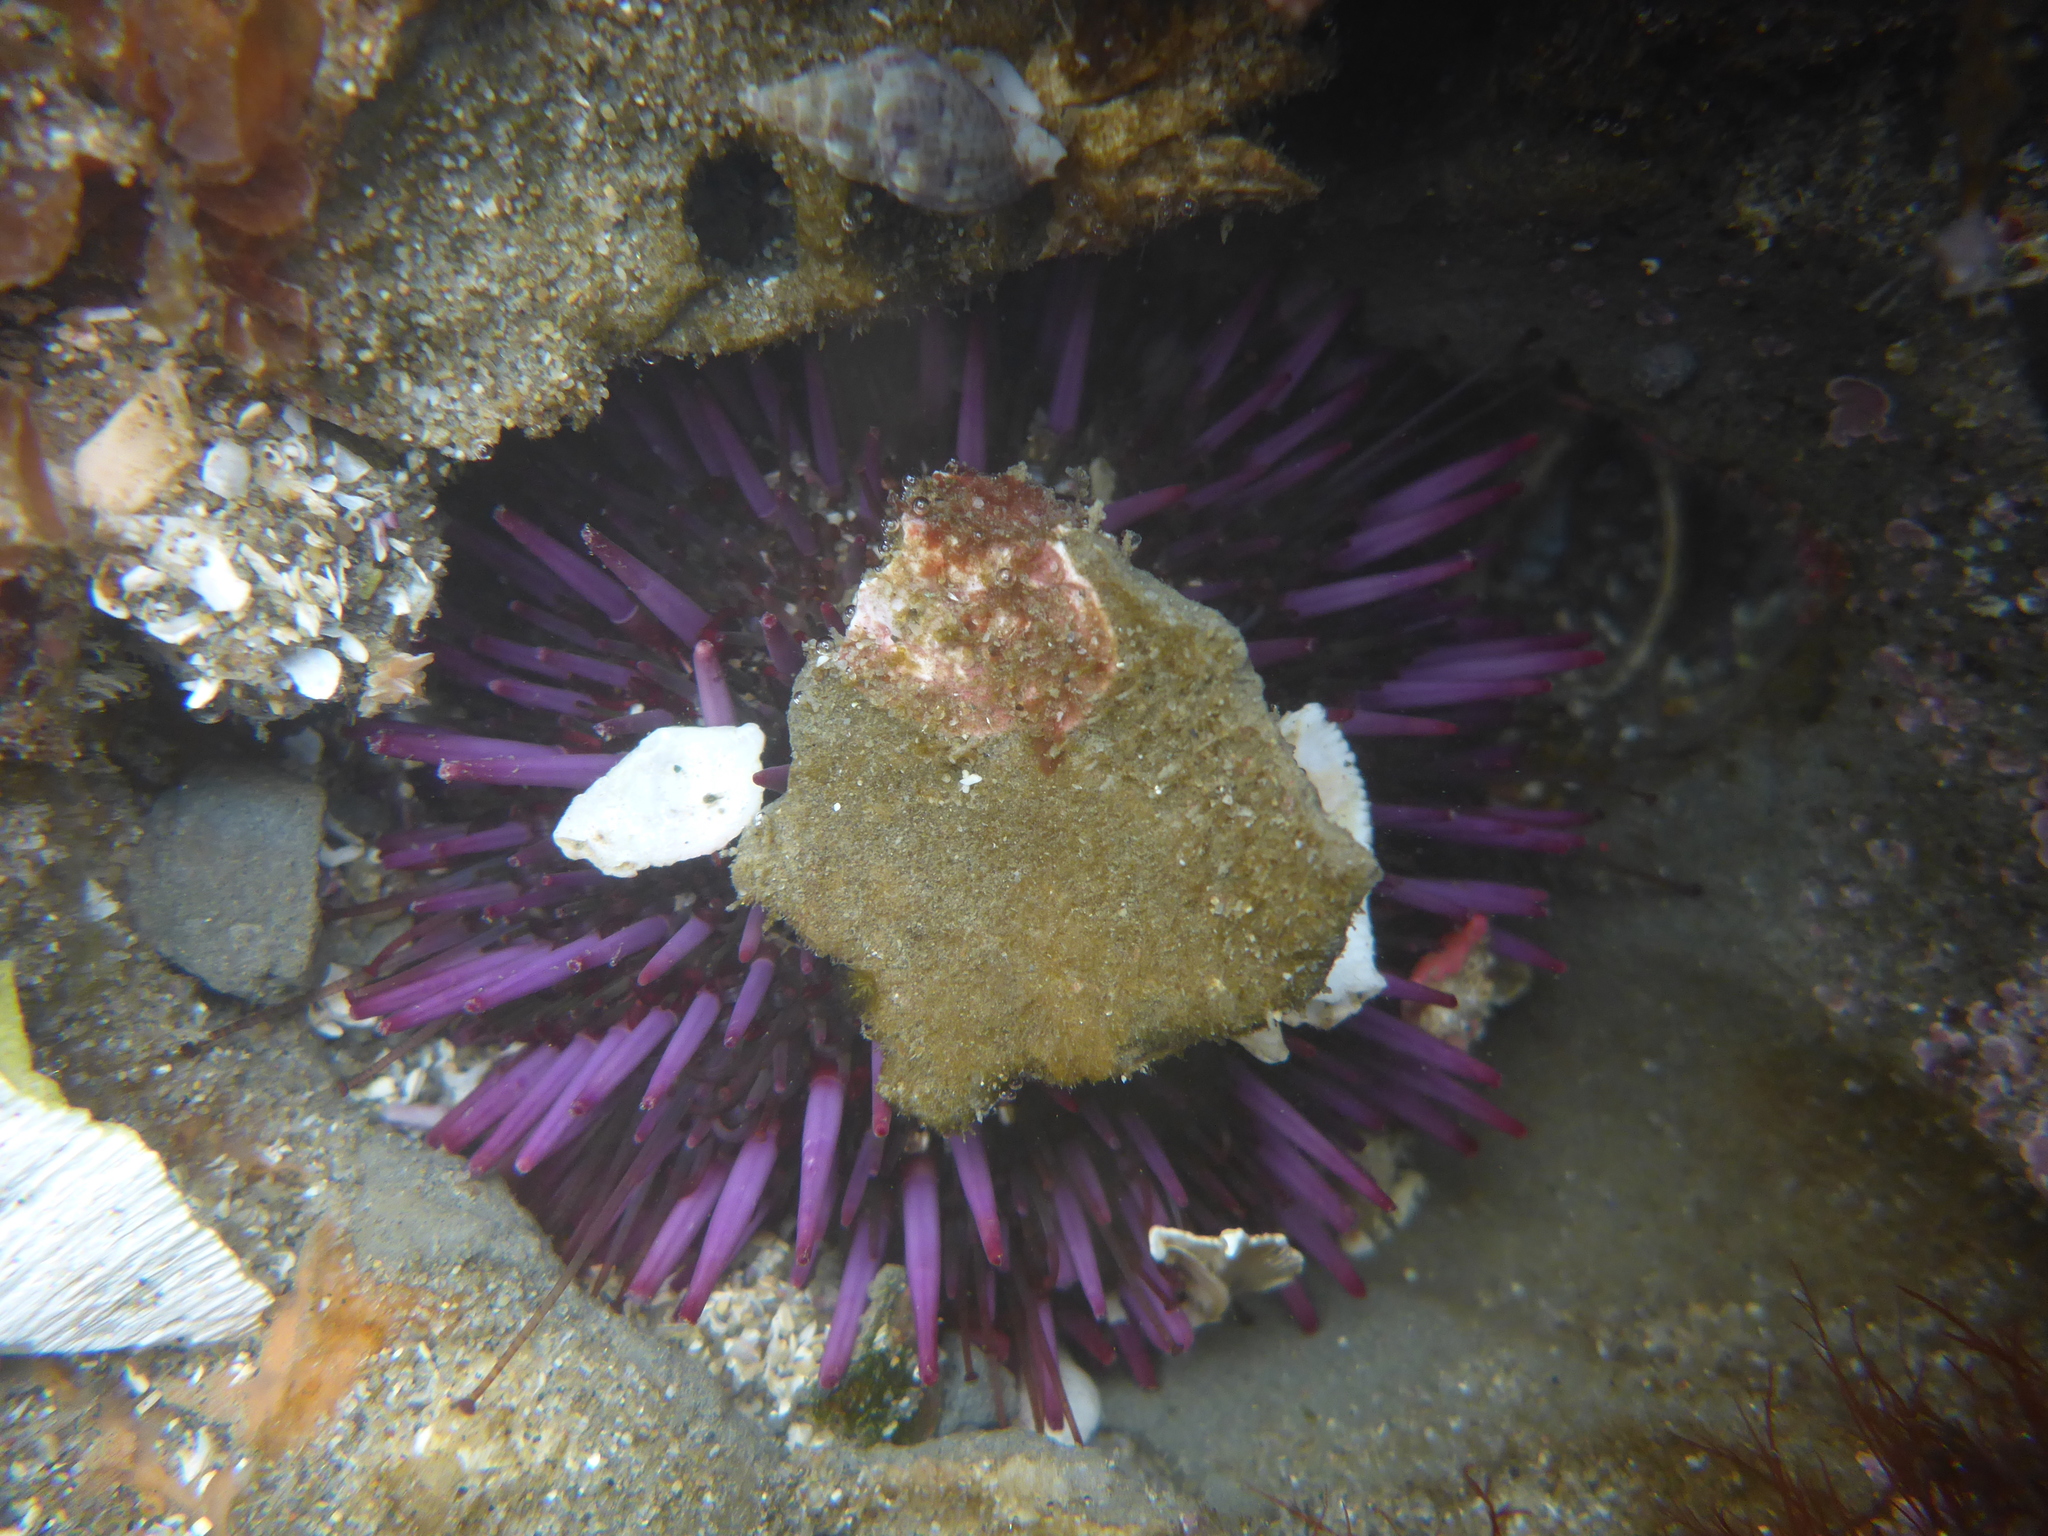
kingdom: Animalia
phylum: Echinodermata
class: Echinoidea
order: Camarodonta
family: Strongylocentrotidae
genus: Strongylocentrotus
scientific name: Strongylocentrotus purpuratus
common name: Purple sea urchin
